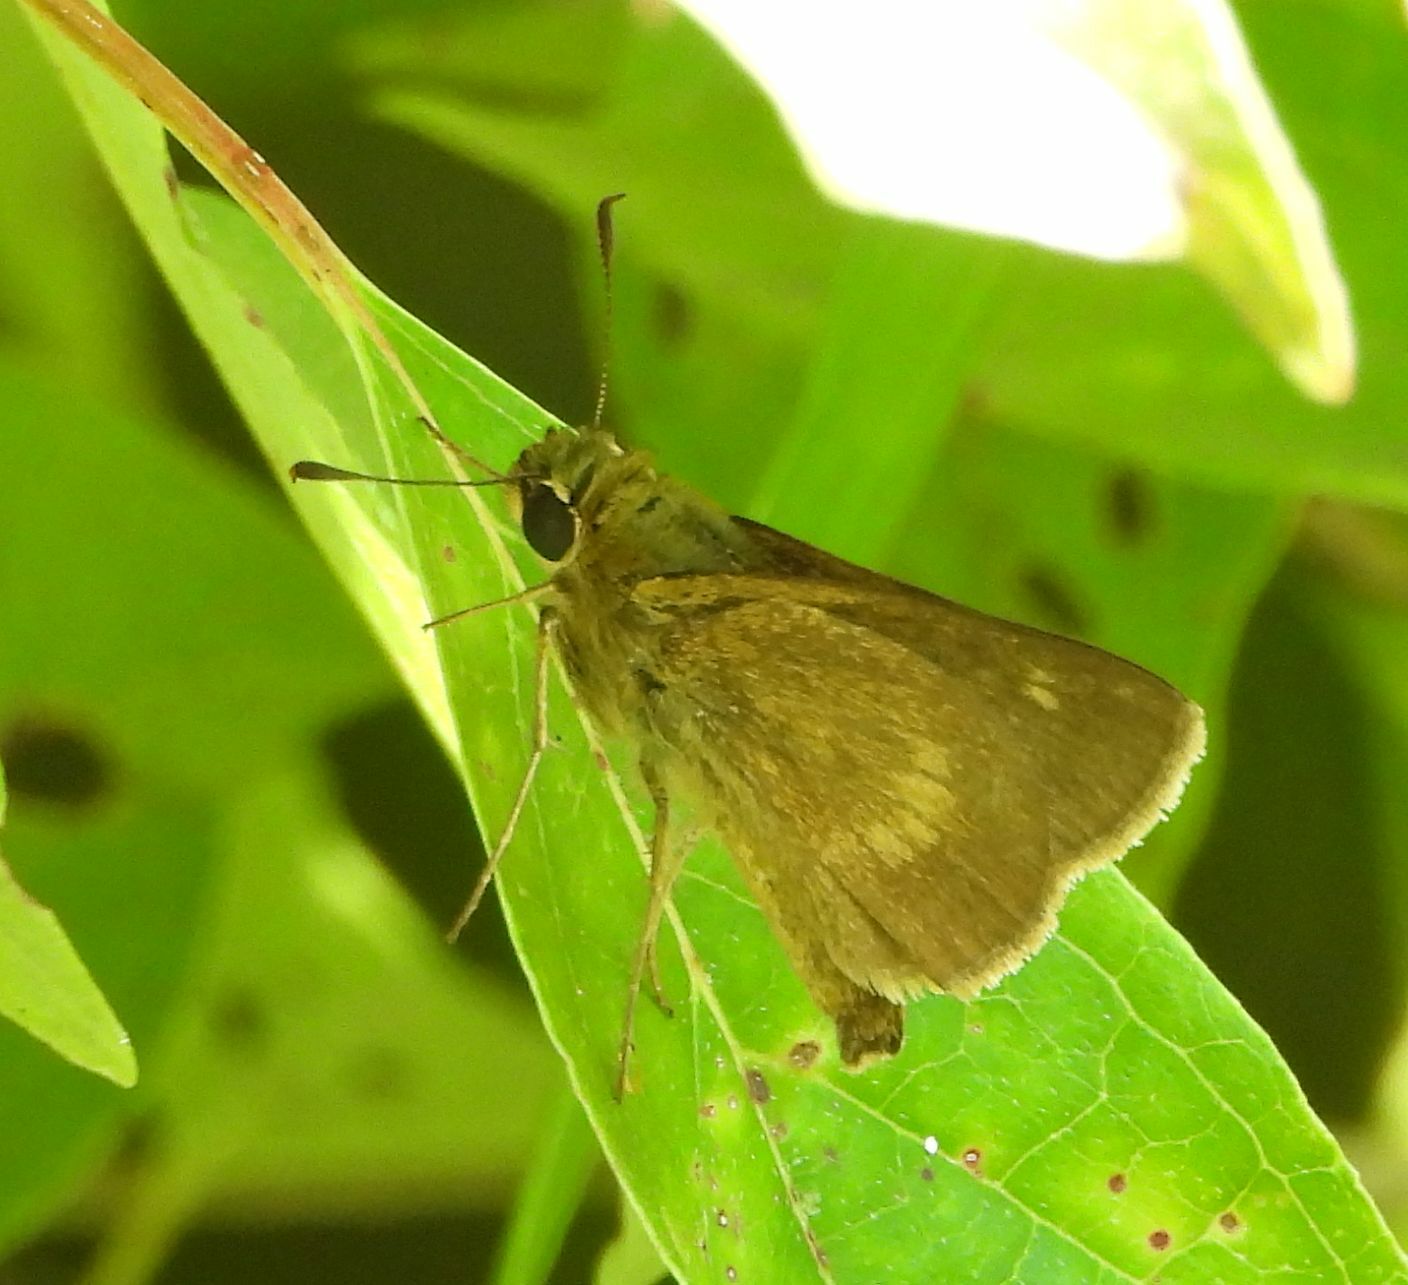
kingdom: Animalia
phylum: Arthropoda
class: Insecta
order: Lepidoptera
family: Hesperiidae
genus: Polites
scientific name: Polites egeremet
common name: Northern broken-dash
